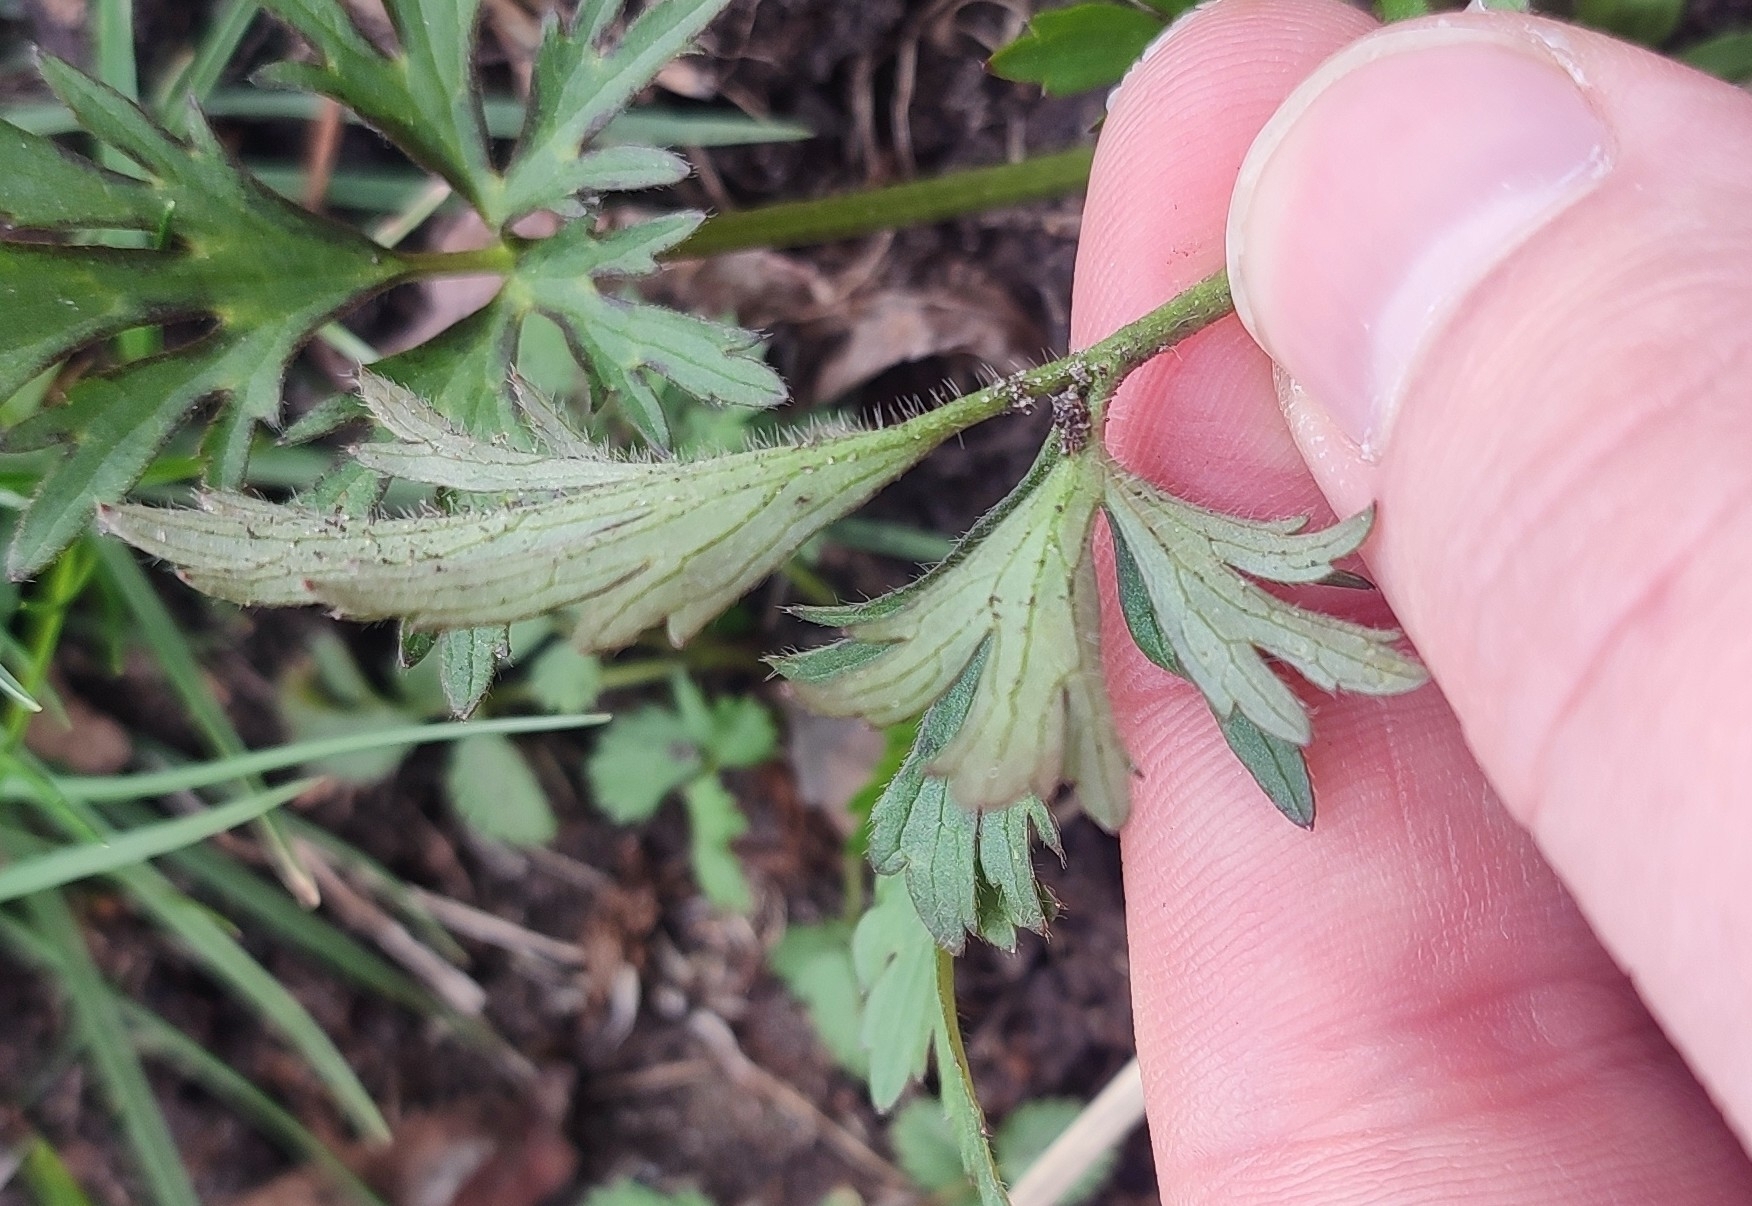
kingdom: Plantae
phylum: Tracheophyta
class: Magnoliopsida
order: Ranunculales
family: Ranunculaceae
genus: Ranunculus
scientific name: Ranunculus polyanthemos
